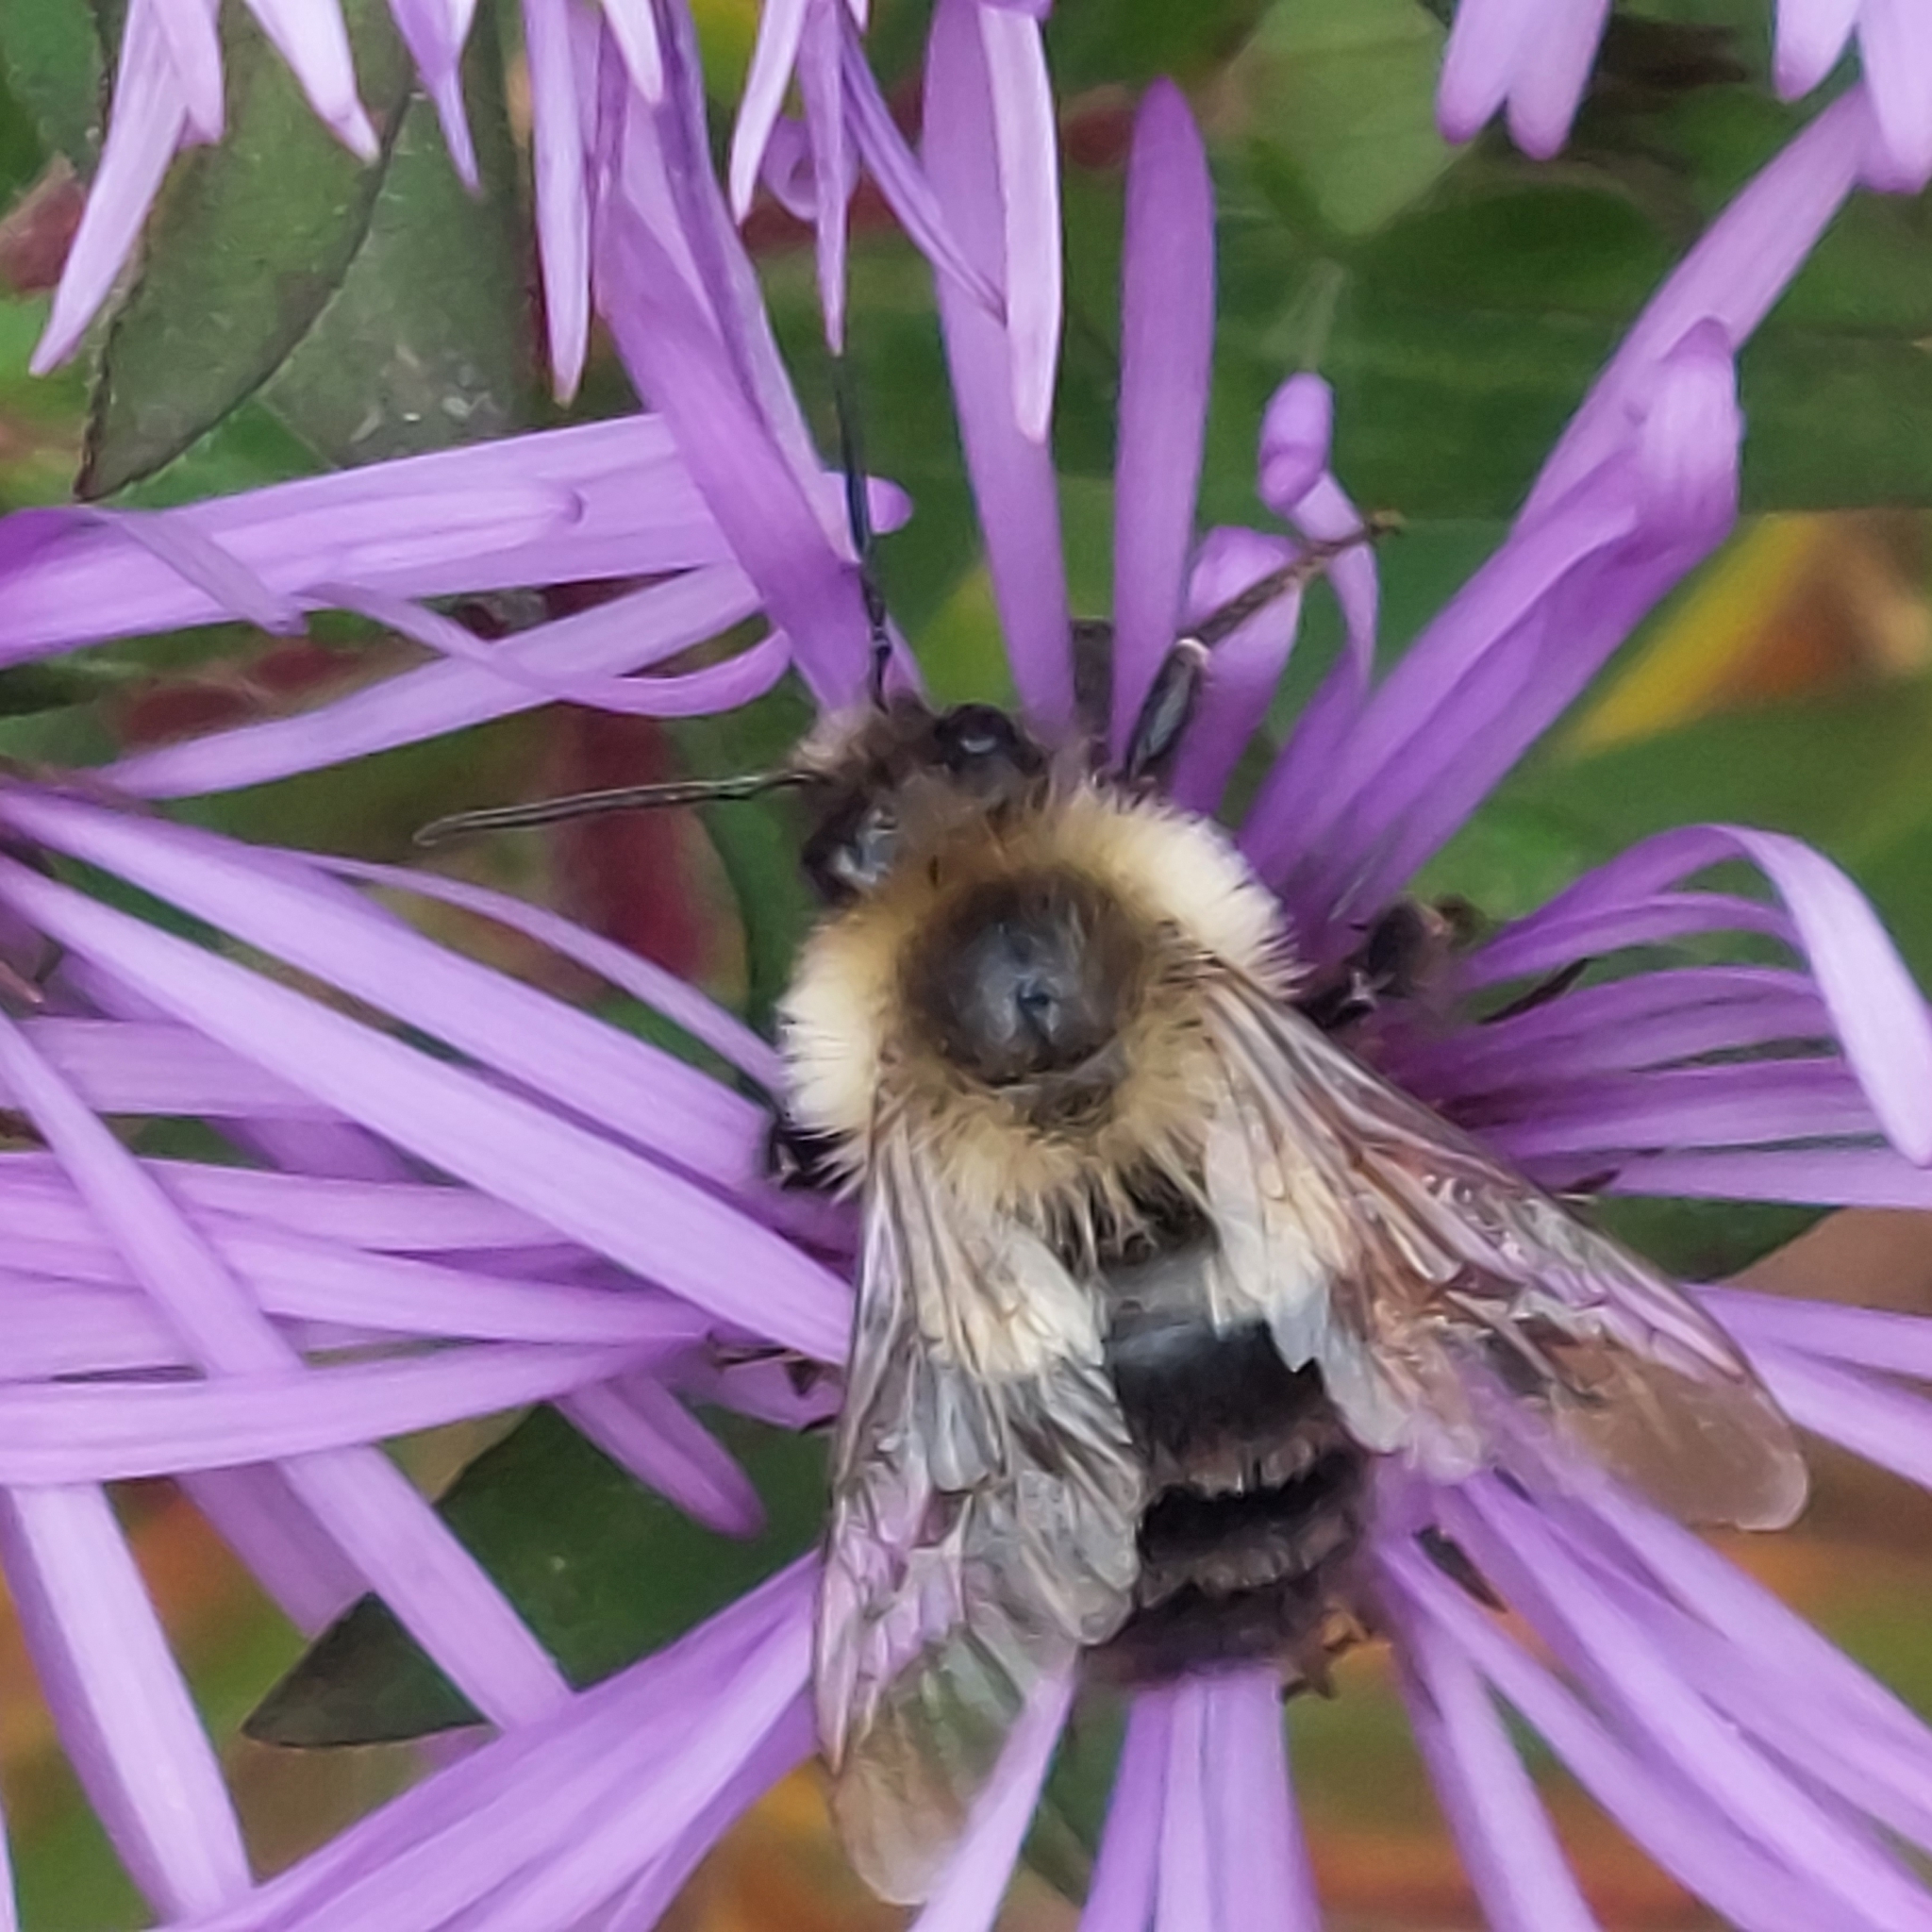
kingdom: Animalia
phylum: Arthropoda
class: Insecta
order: Hymenoptera
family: Apidae
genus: Bombus
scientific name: Bombus impatiens
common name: Common eastern bumble bee
